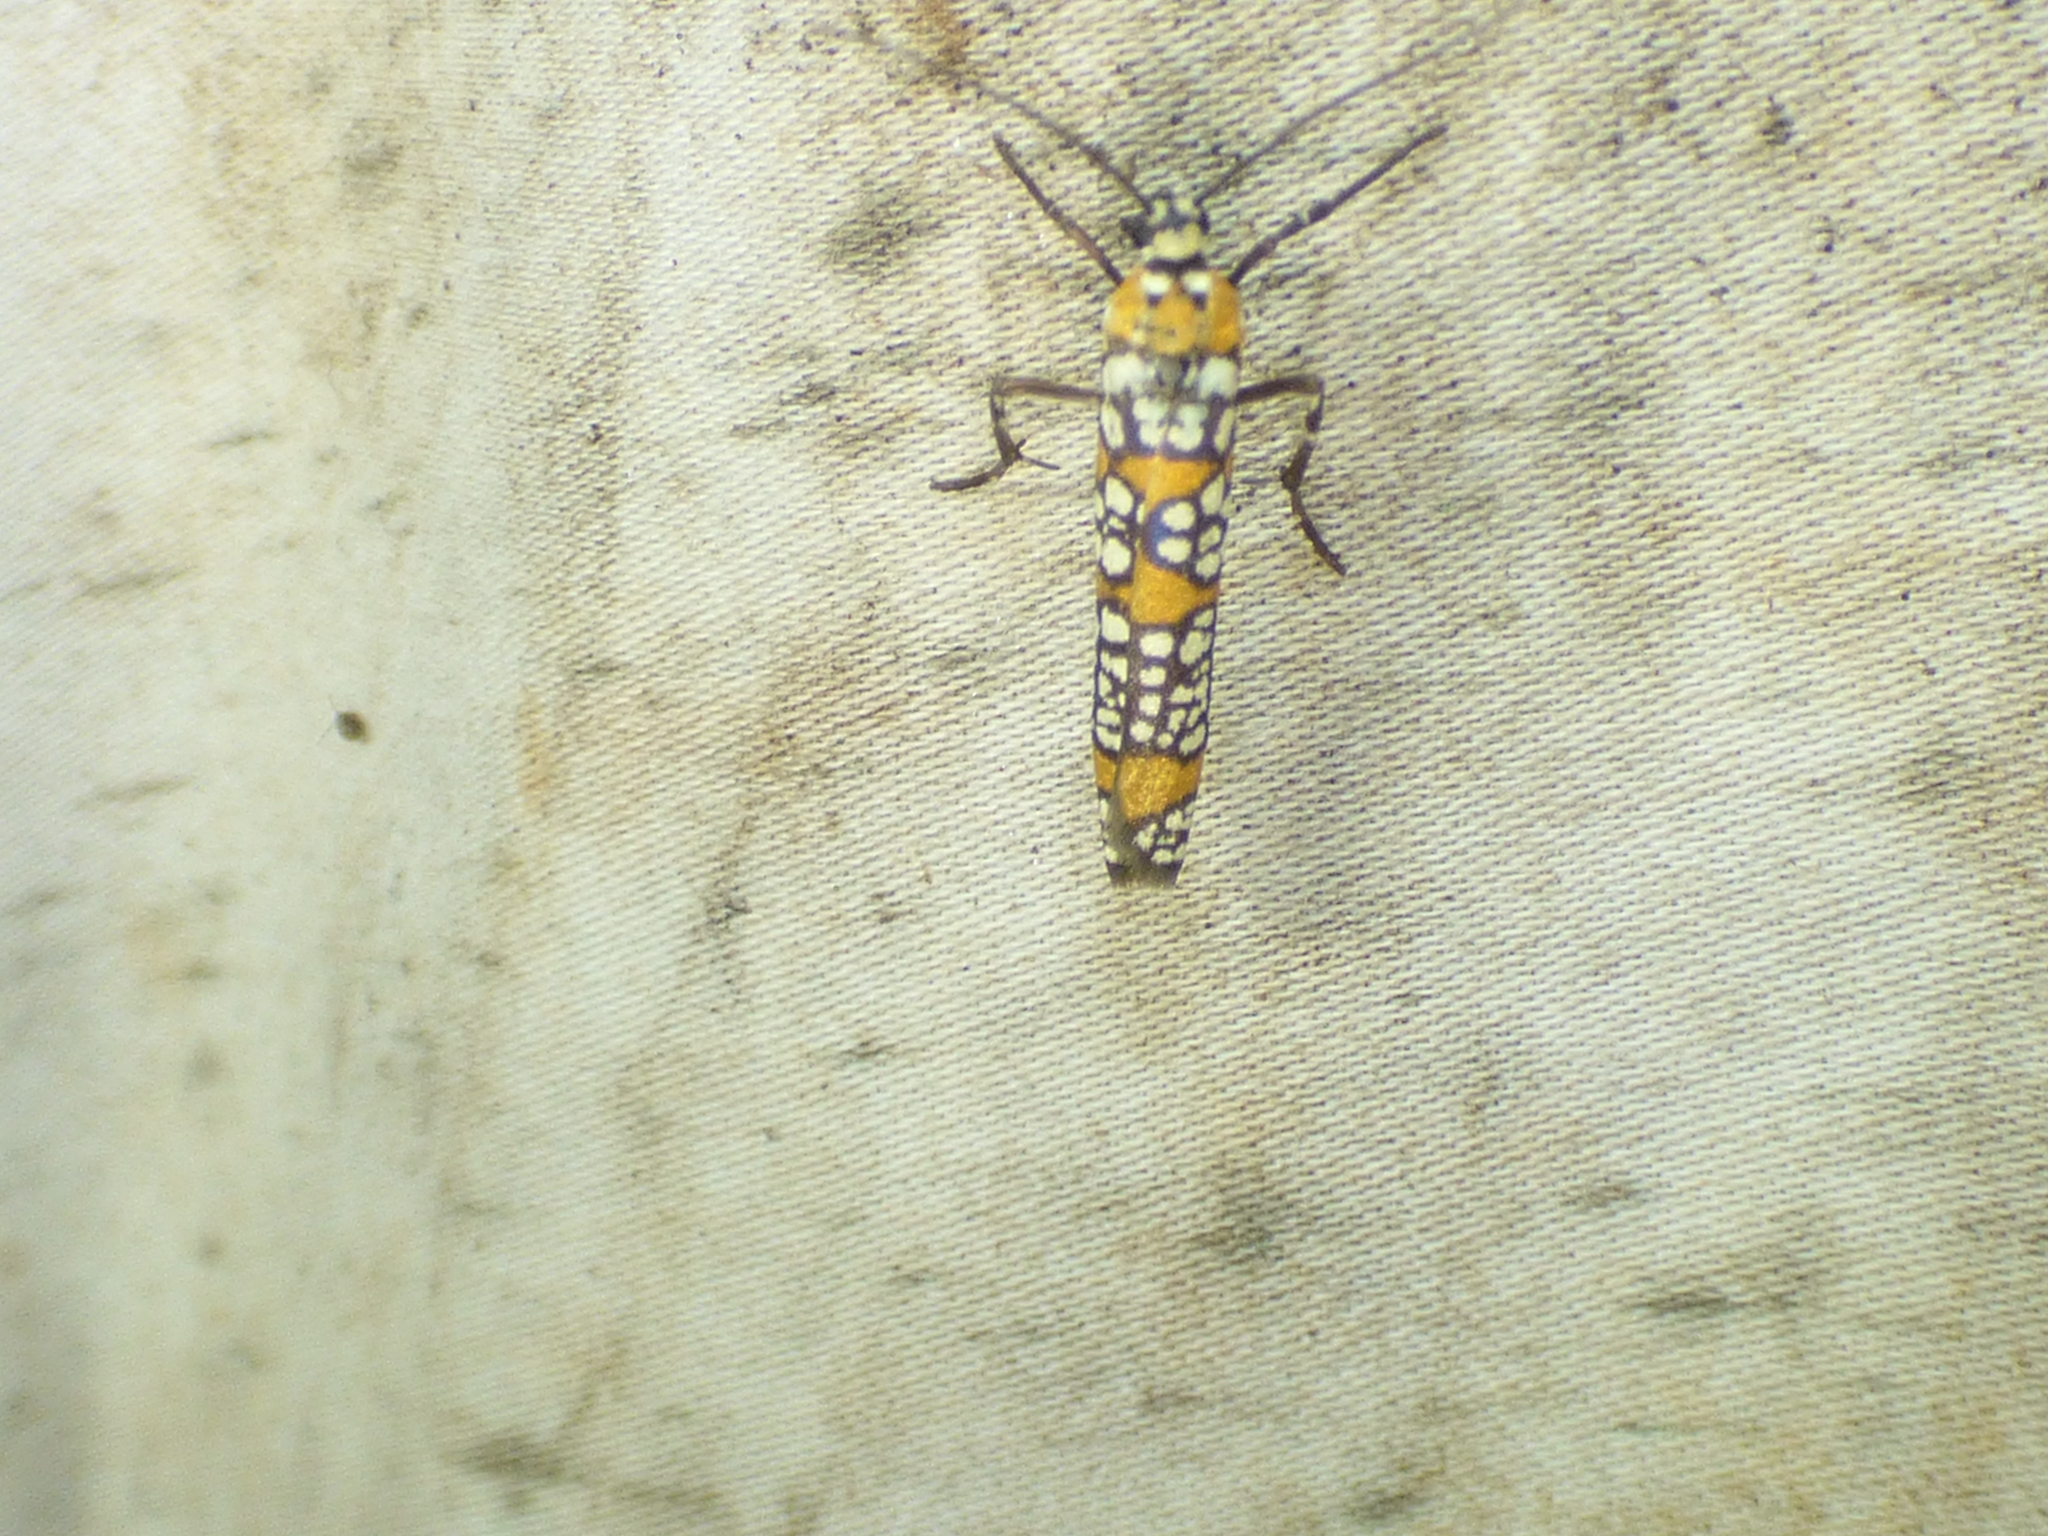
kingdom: Animalia
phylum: Arthropoda
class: Insecta
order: Lepidoptera
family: Attevidae
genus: Atteva
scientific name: Atteva punctella
